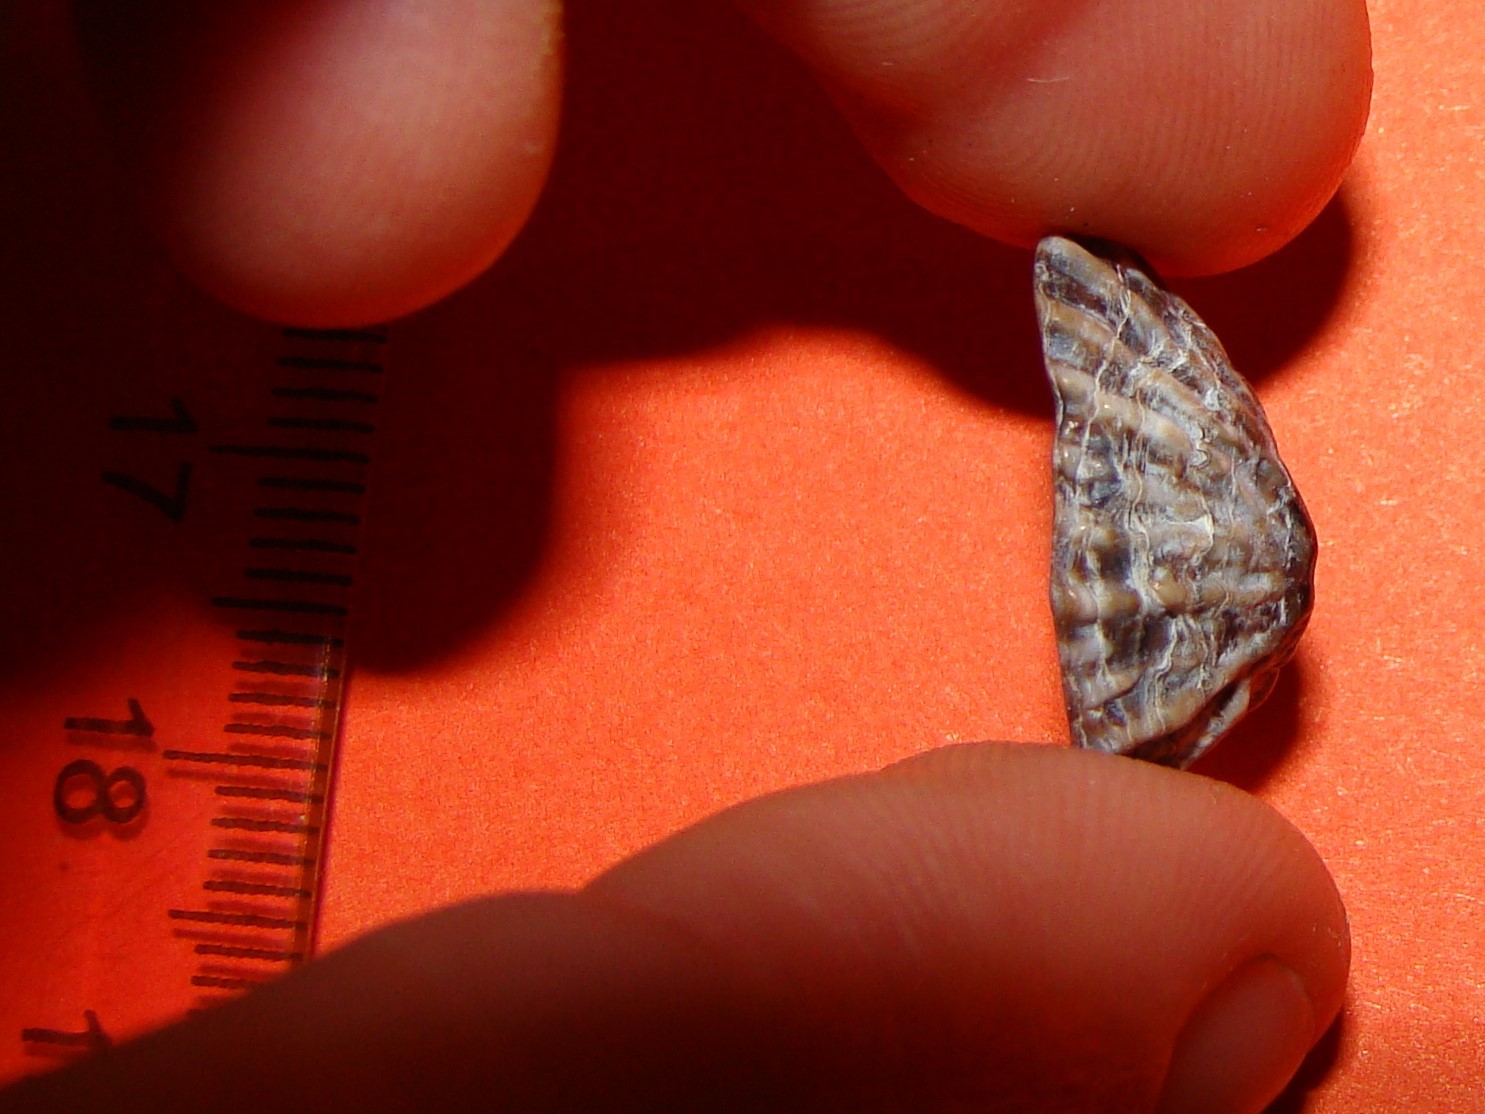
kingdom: Animalia
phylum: Mollusca
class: Gastropoda
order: Siphonariida
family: Siphonariidae
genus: Siphonaria
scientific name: Siphonaria australis
